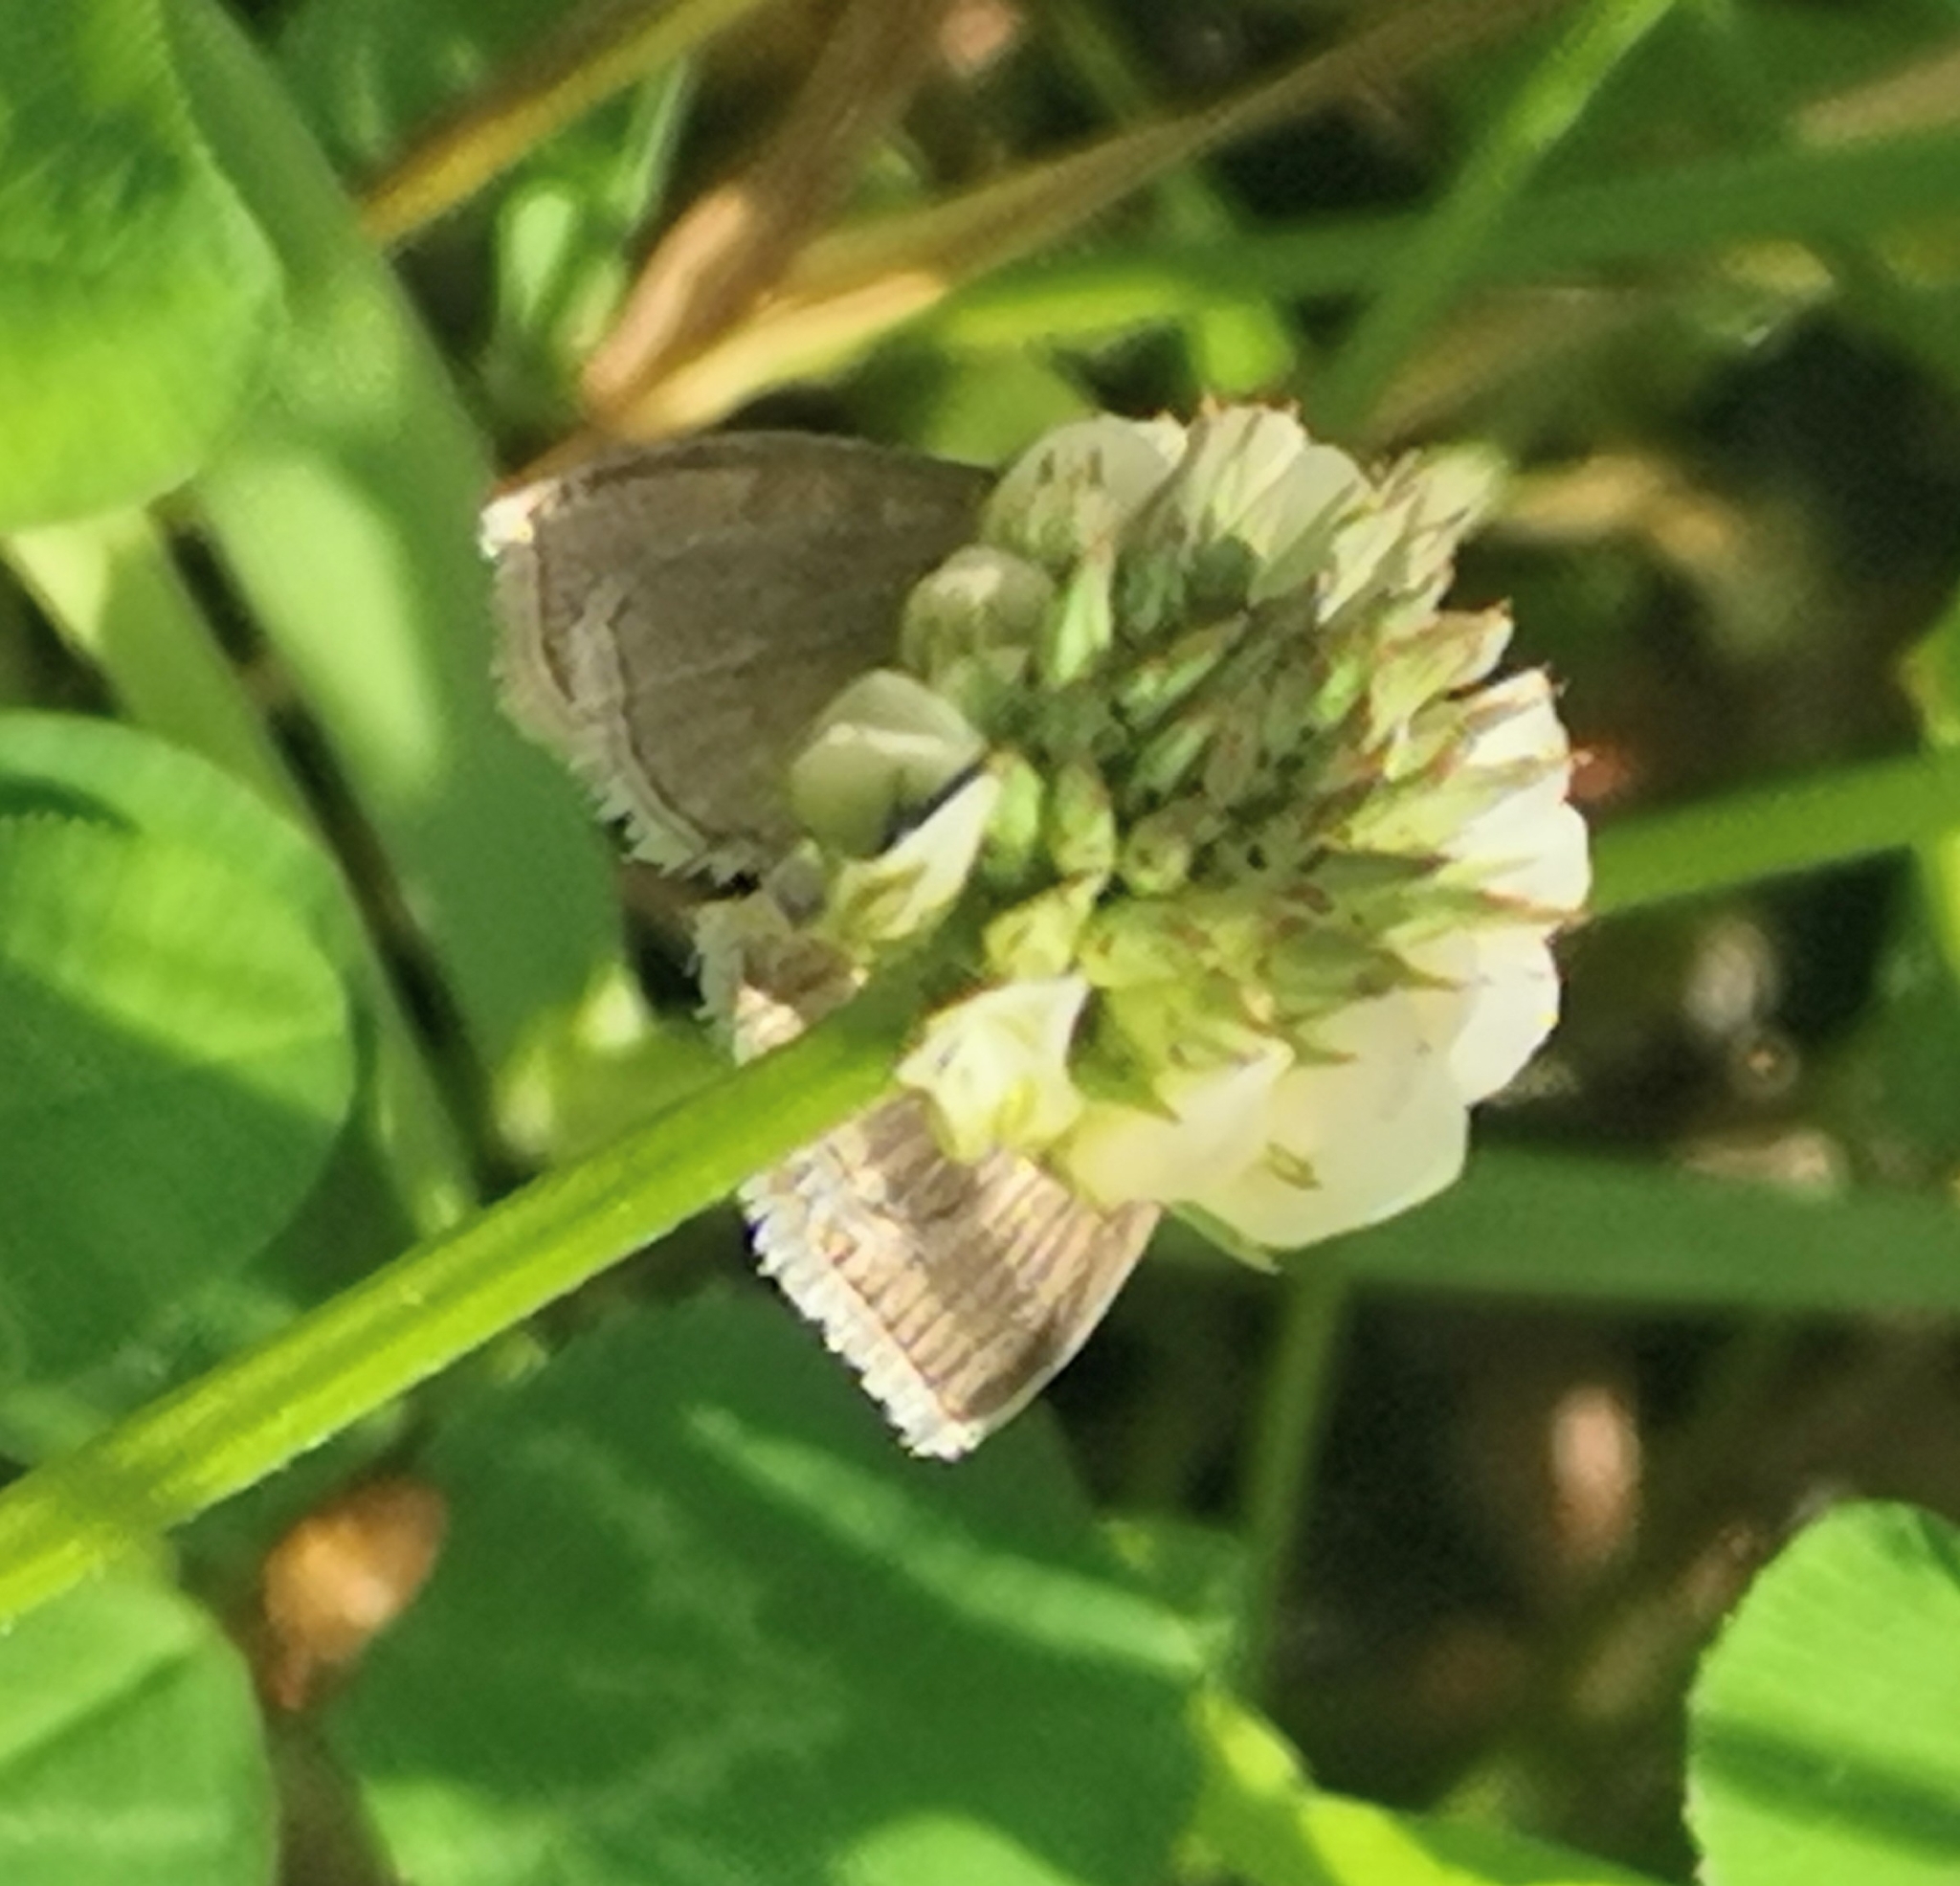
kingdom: Animalia
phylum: Arthropoda
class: Insecta
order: Lepidoptera
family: Crambidae
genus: Anania
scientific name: Anania fuscalis
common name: Cinerous pearl
